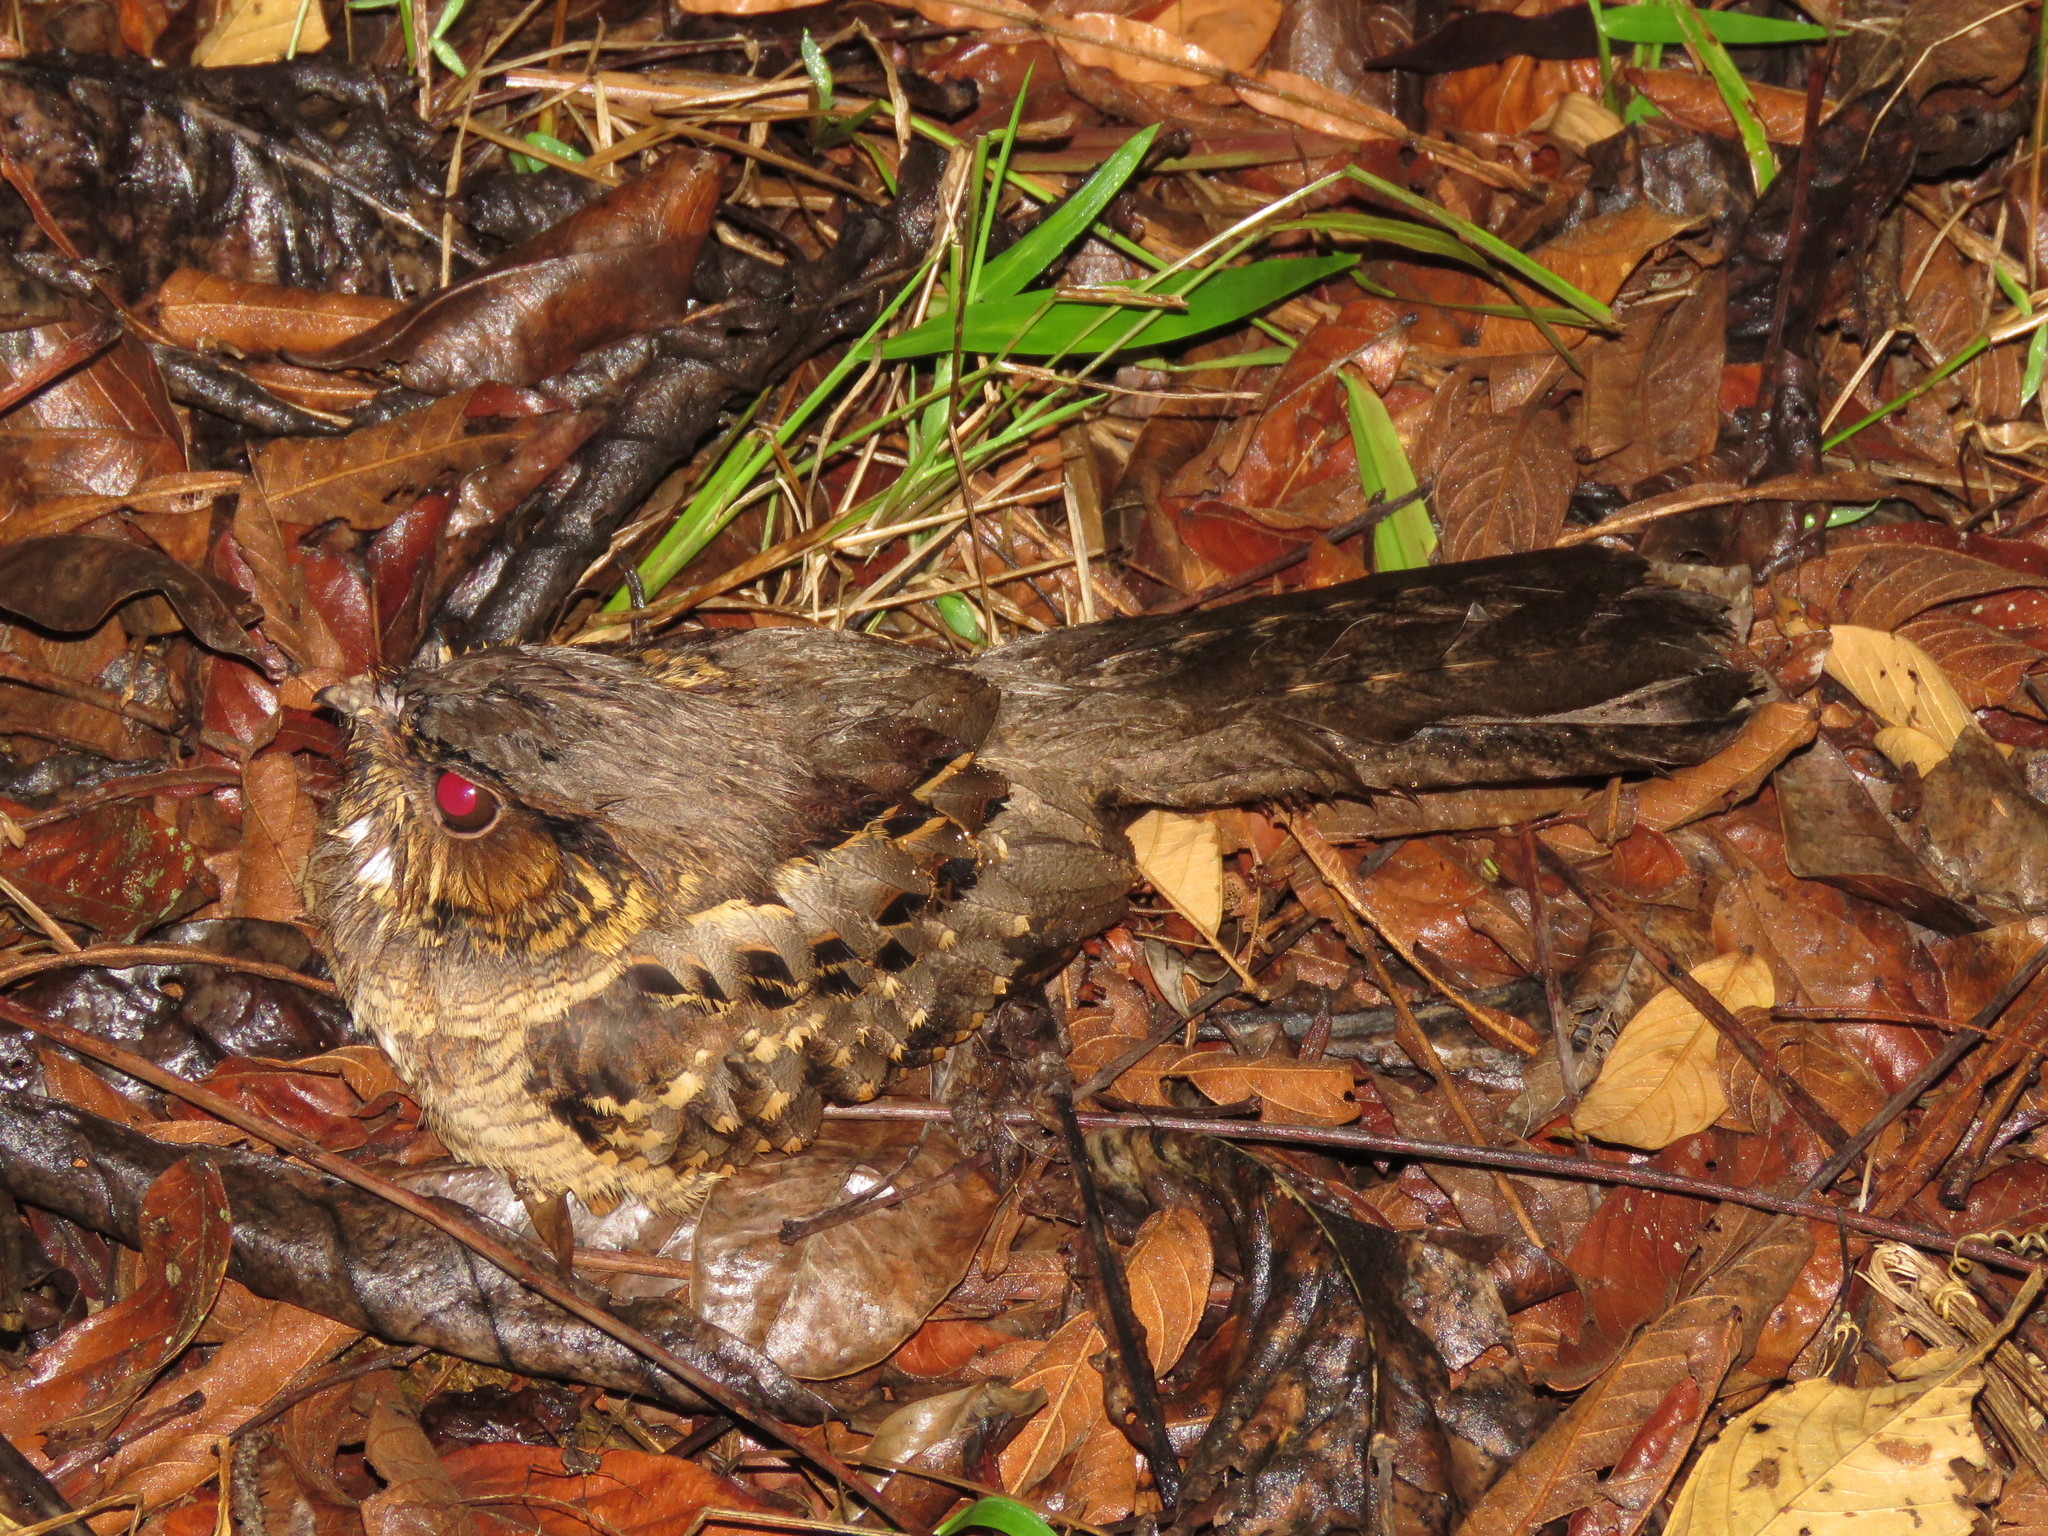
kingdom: Animalia
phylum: Chordata
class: Aves
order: Caprimulgiformes
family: Caprimulgidae
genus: Nyctidromus
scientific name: Nyctidromus albicollis
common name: Pauraque
